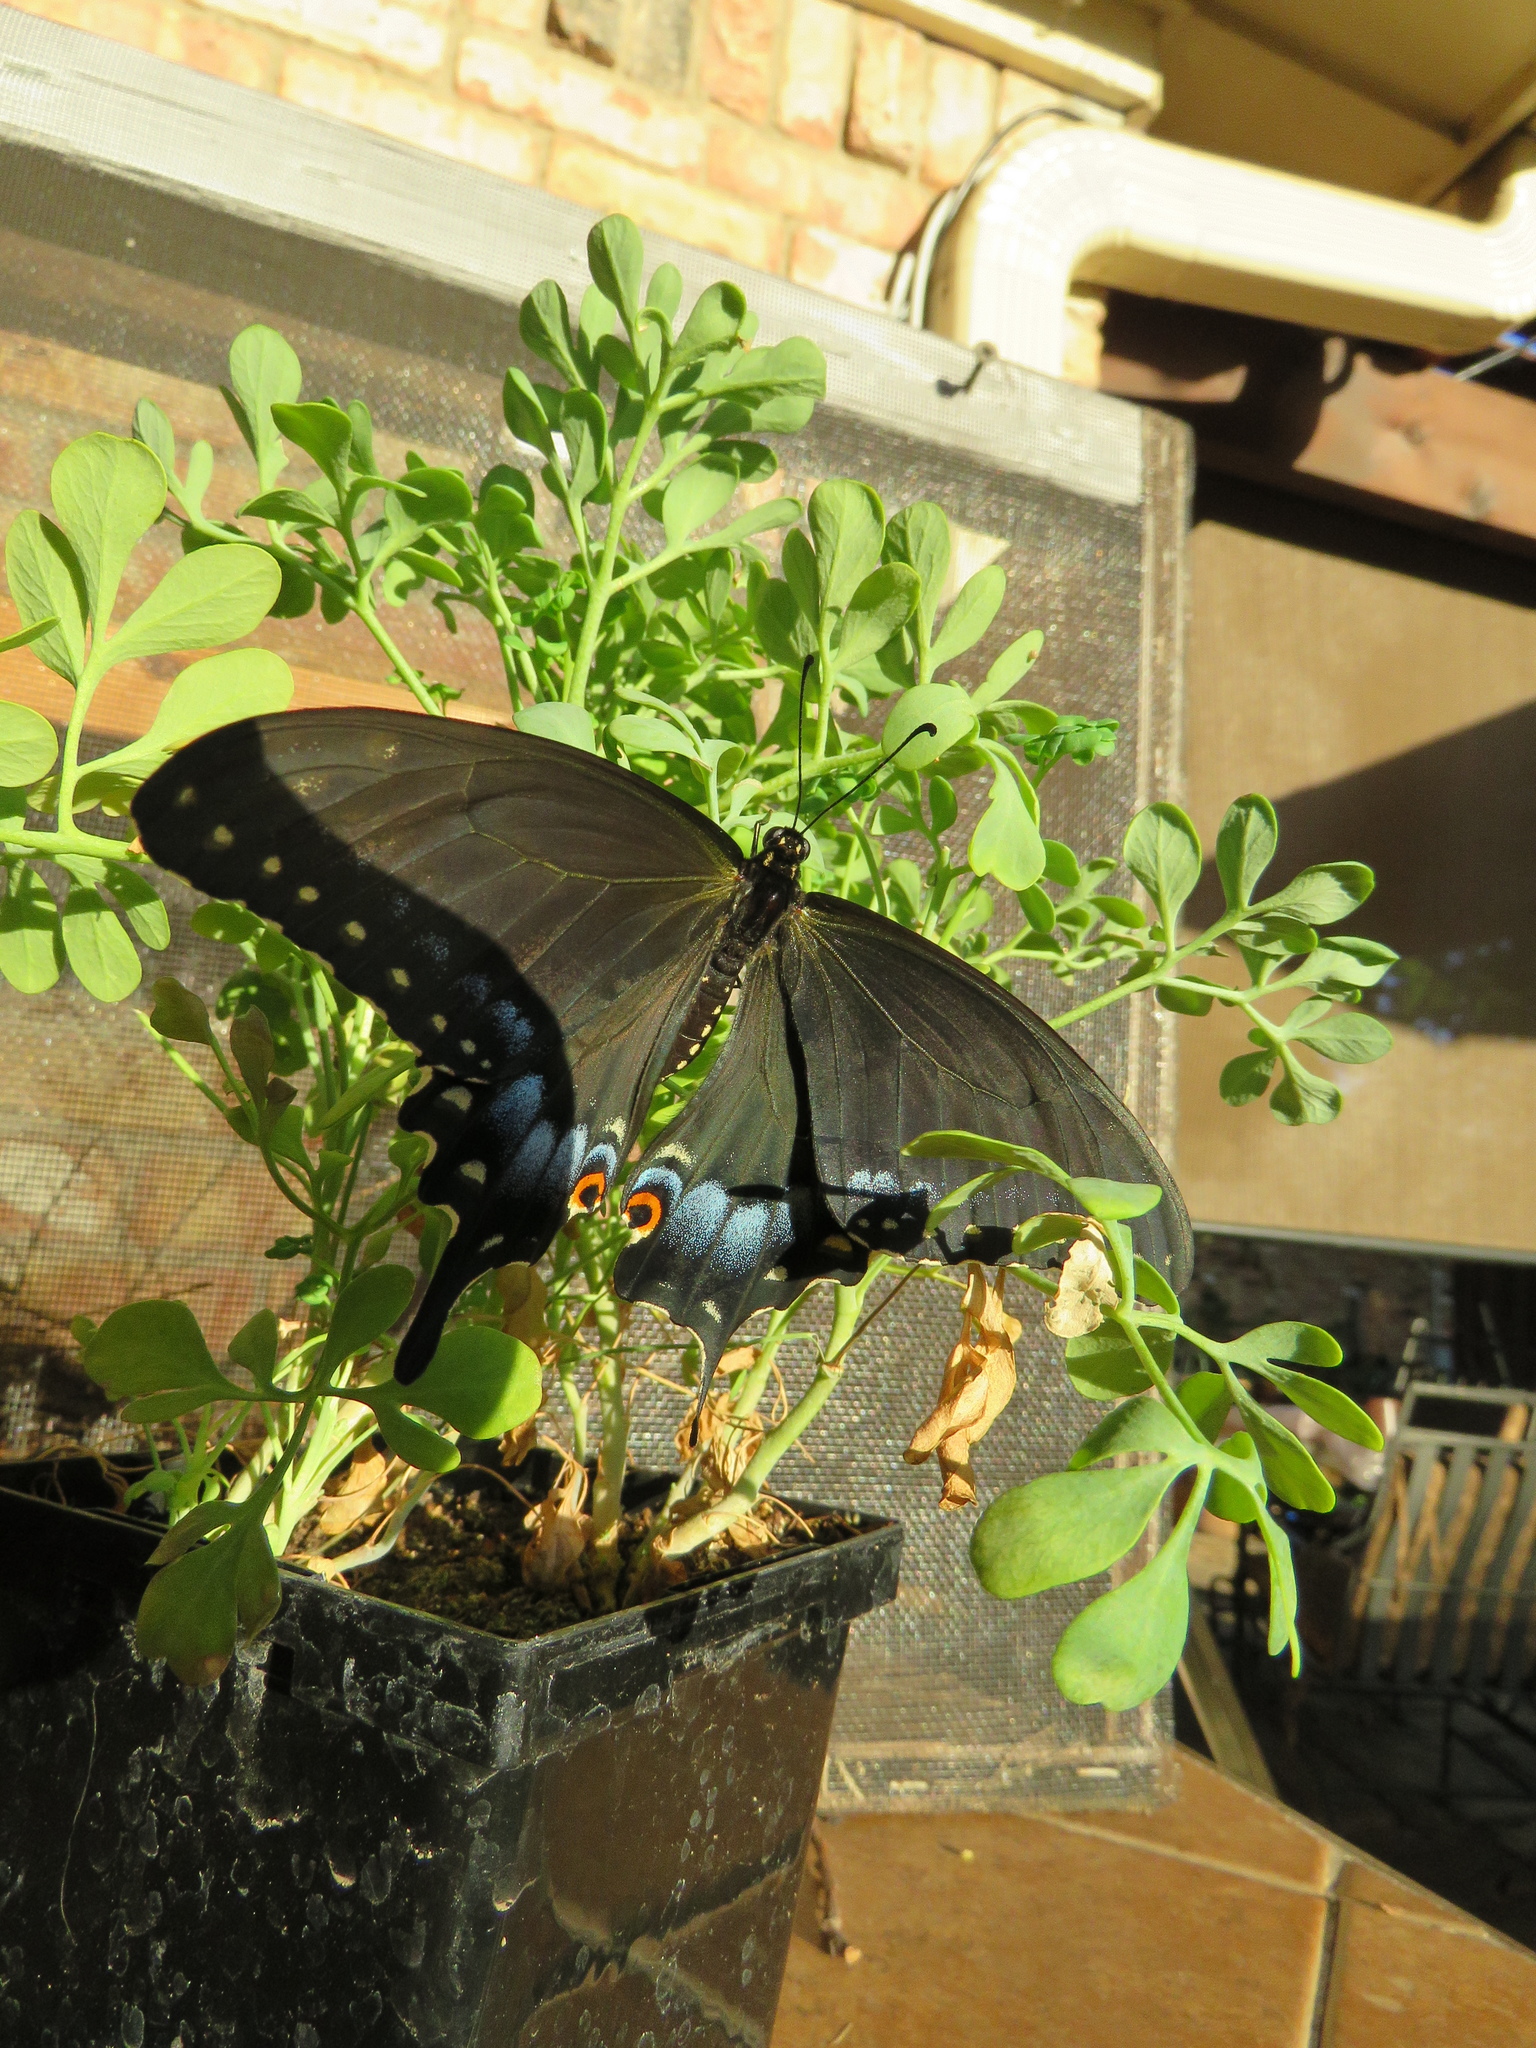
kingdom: Animalia
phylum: Arthropoda
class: Insecta
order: Lepidoptera
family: Papilionidae
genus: Papilio
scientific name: Papilio polyxenes
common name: Black swallowtail
